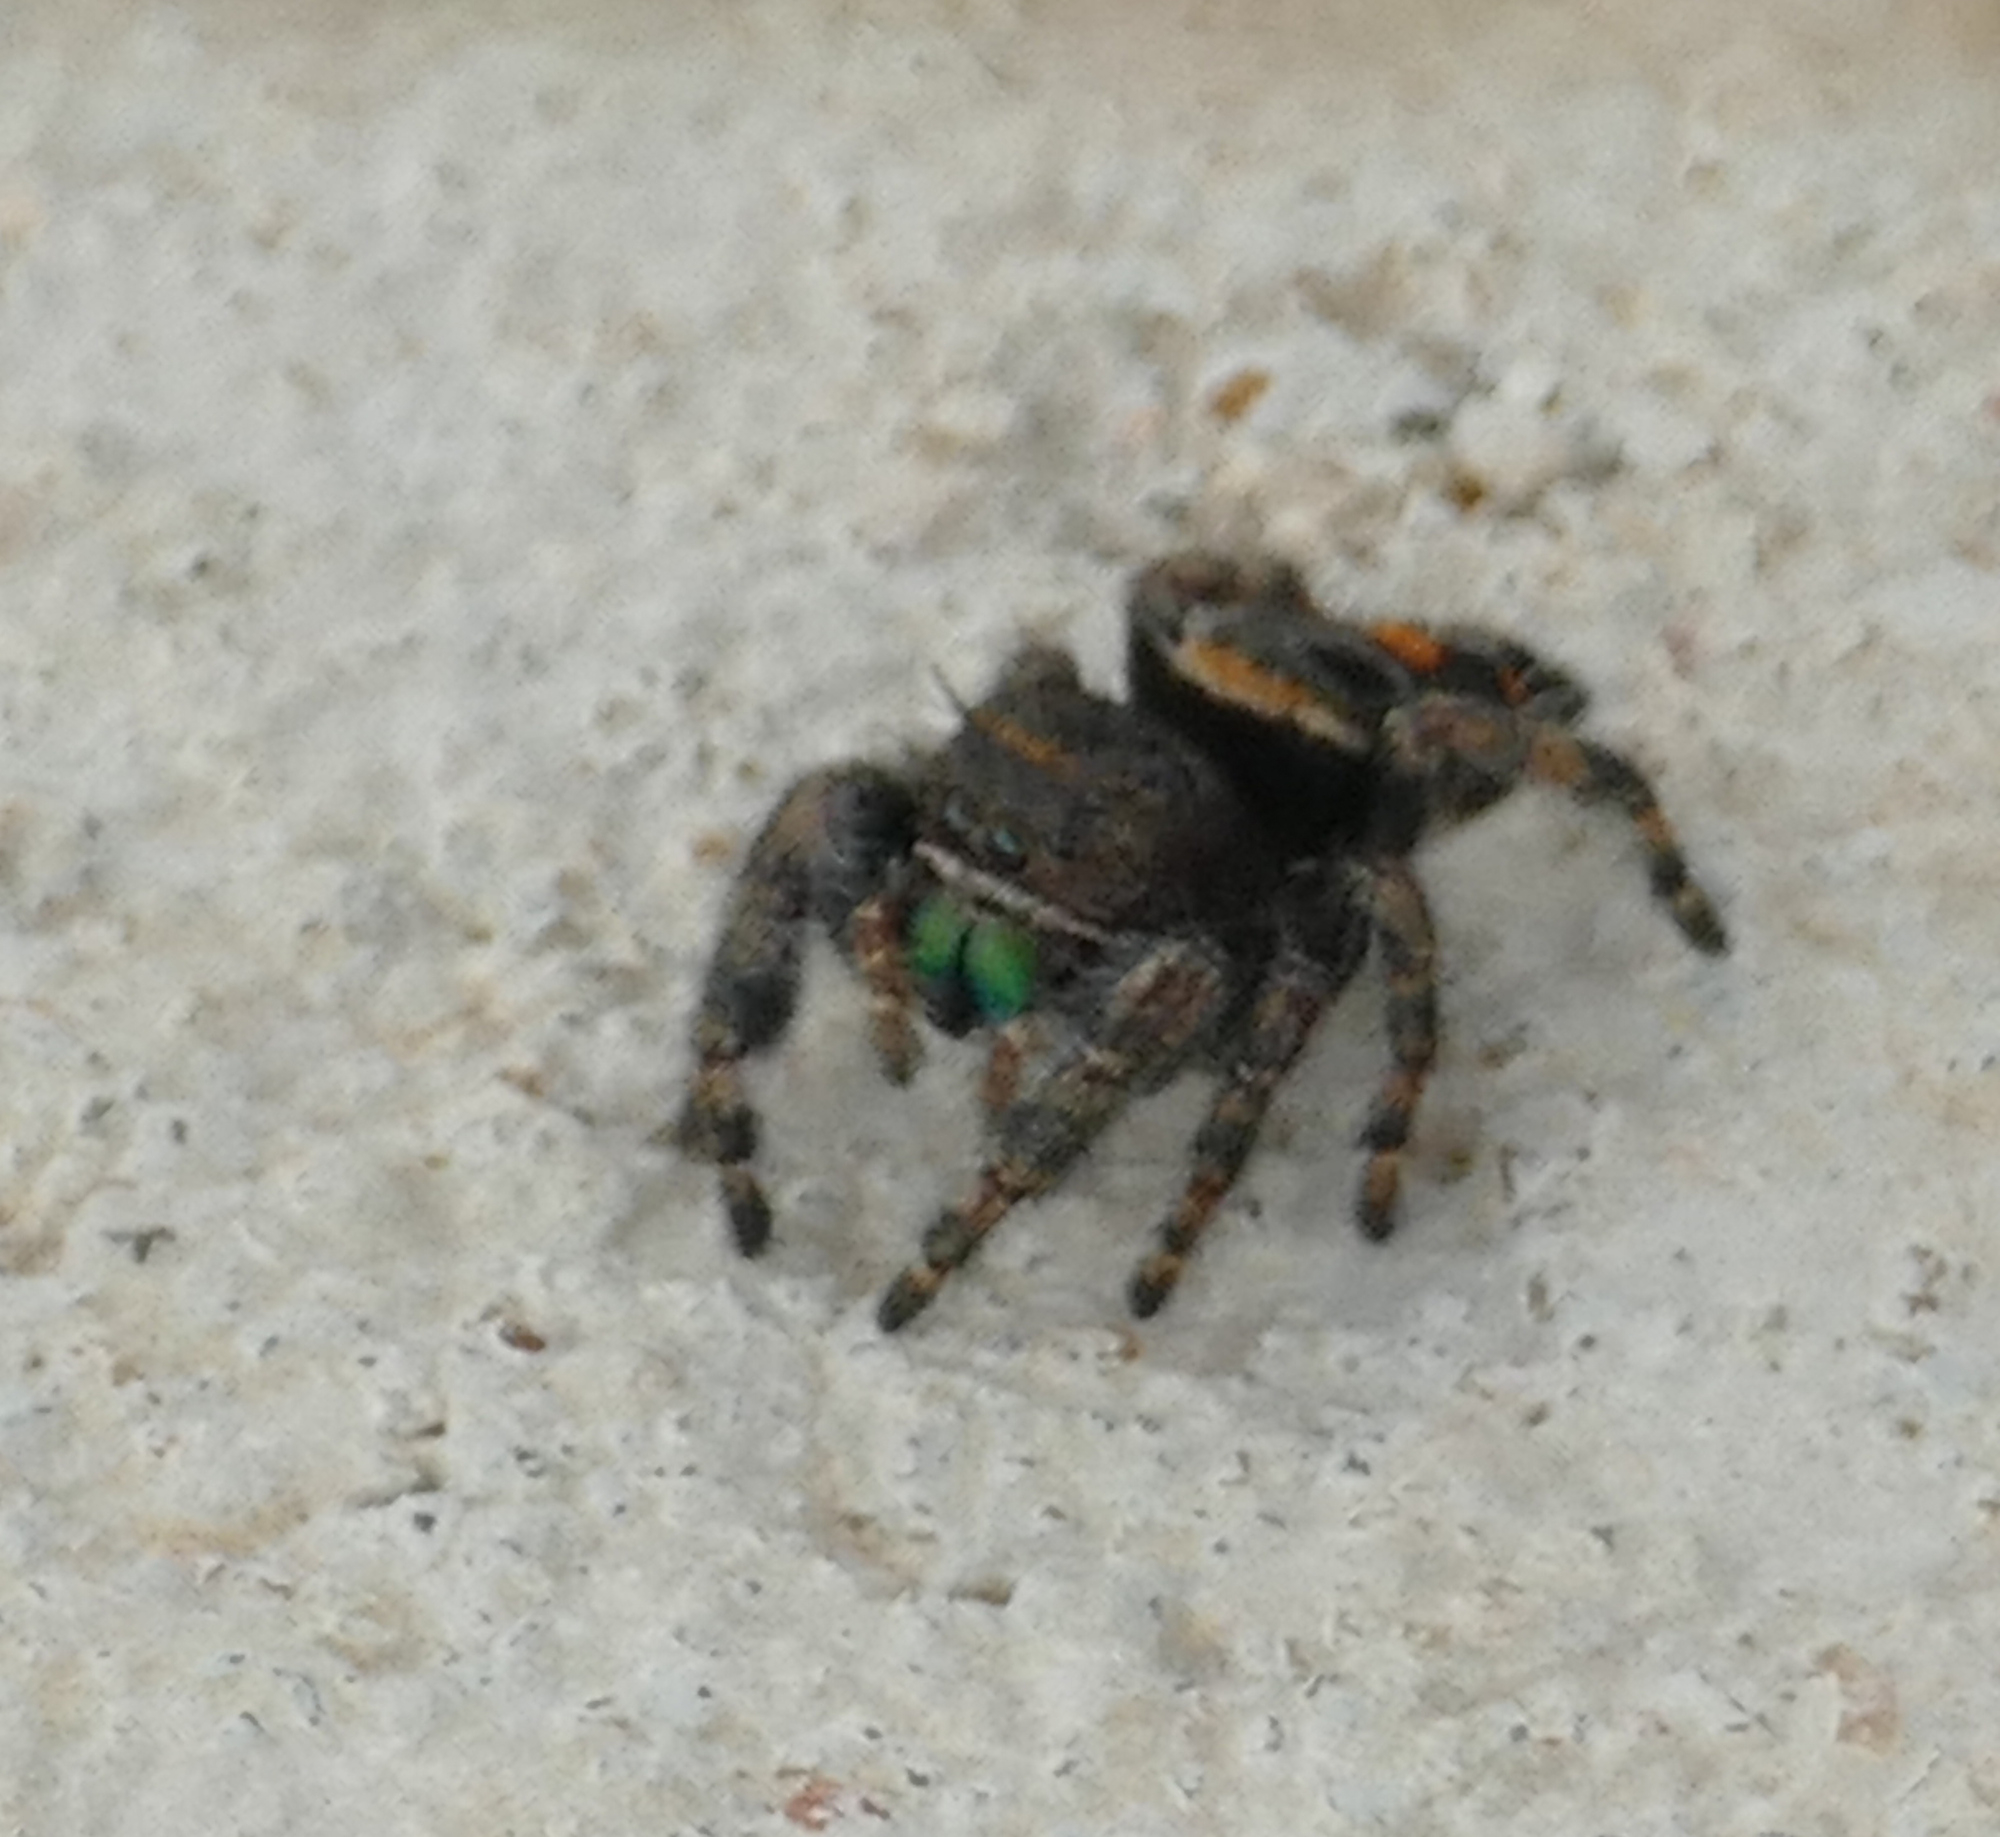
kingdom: Animalia
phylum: Arthropoda
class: Arachnida
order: Araneae
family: Salticidae
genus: Phidippus
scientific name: Phidippus audax
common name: Bold jumper
